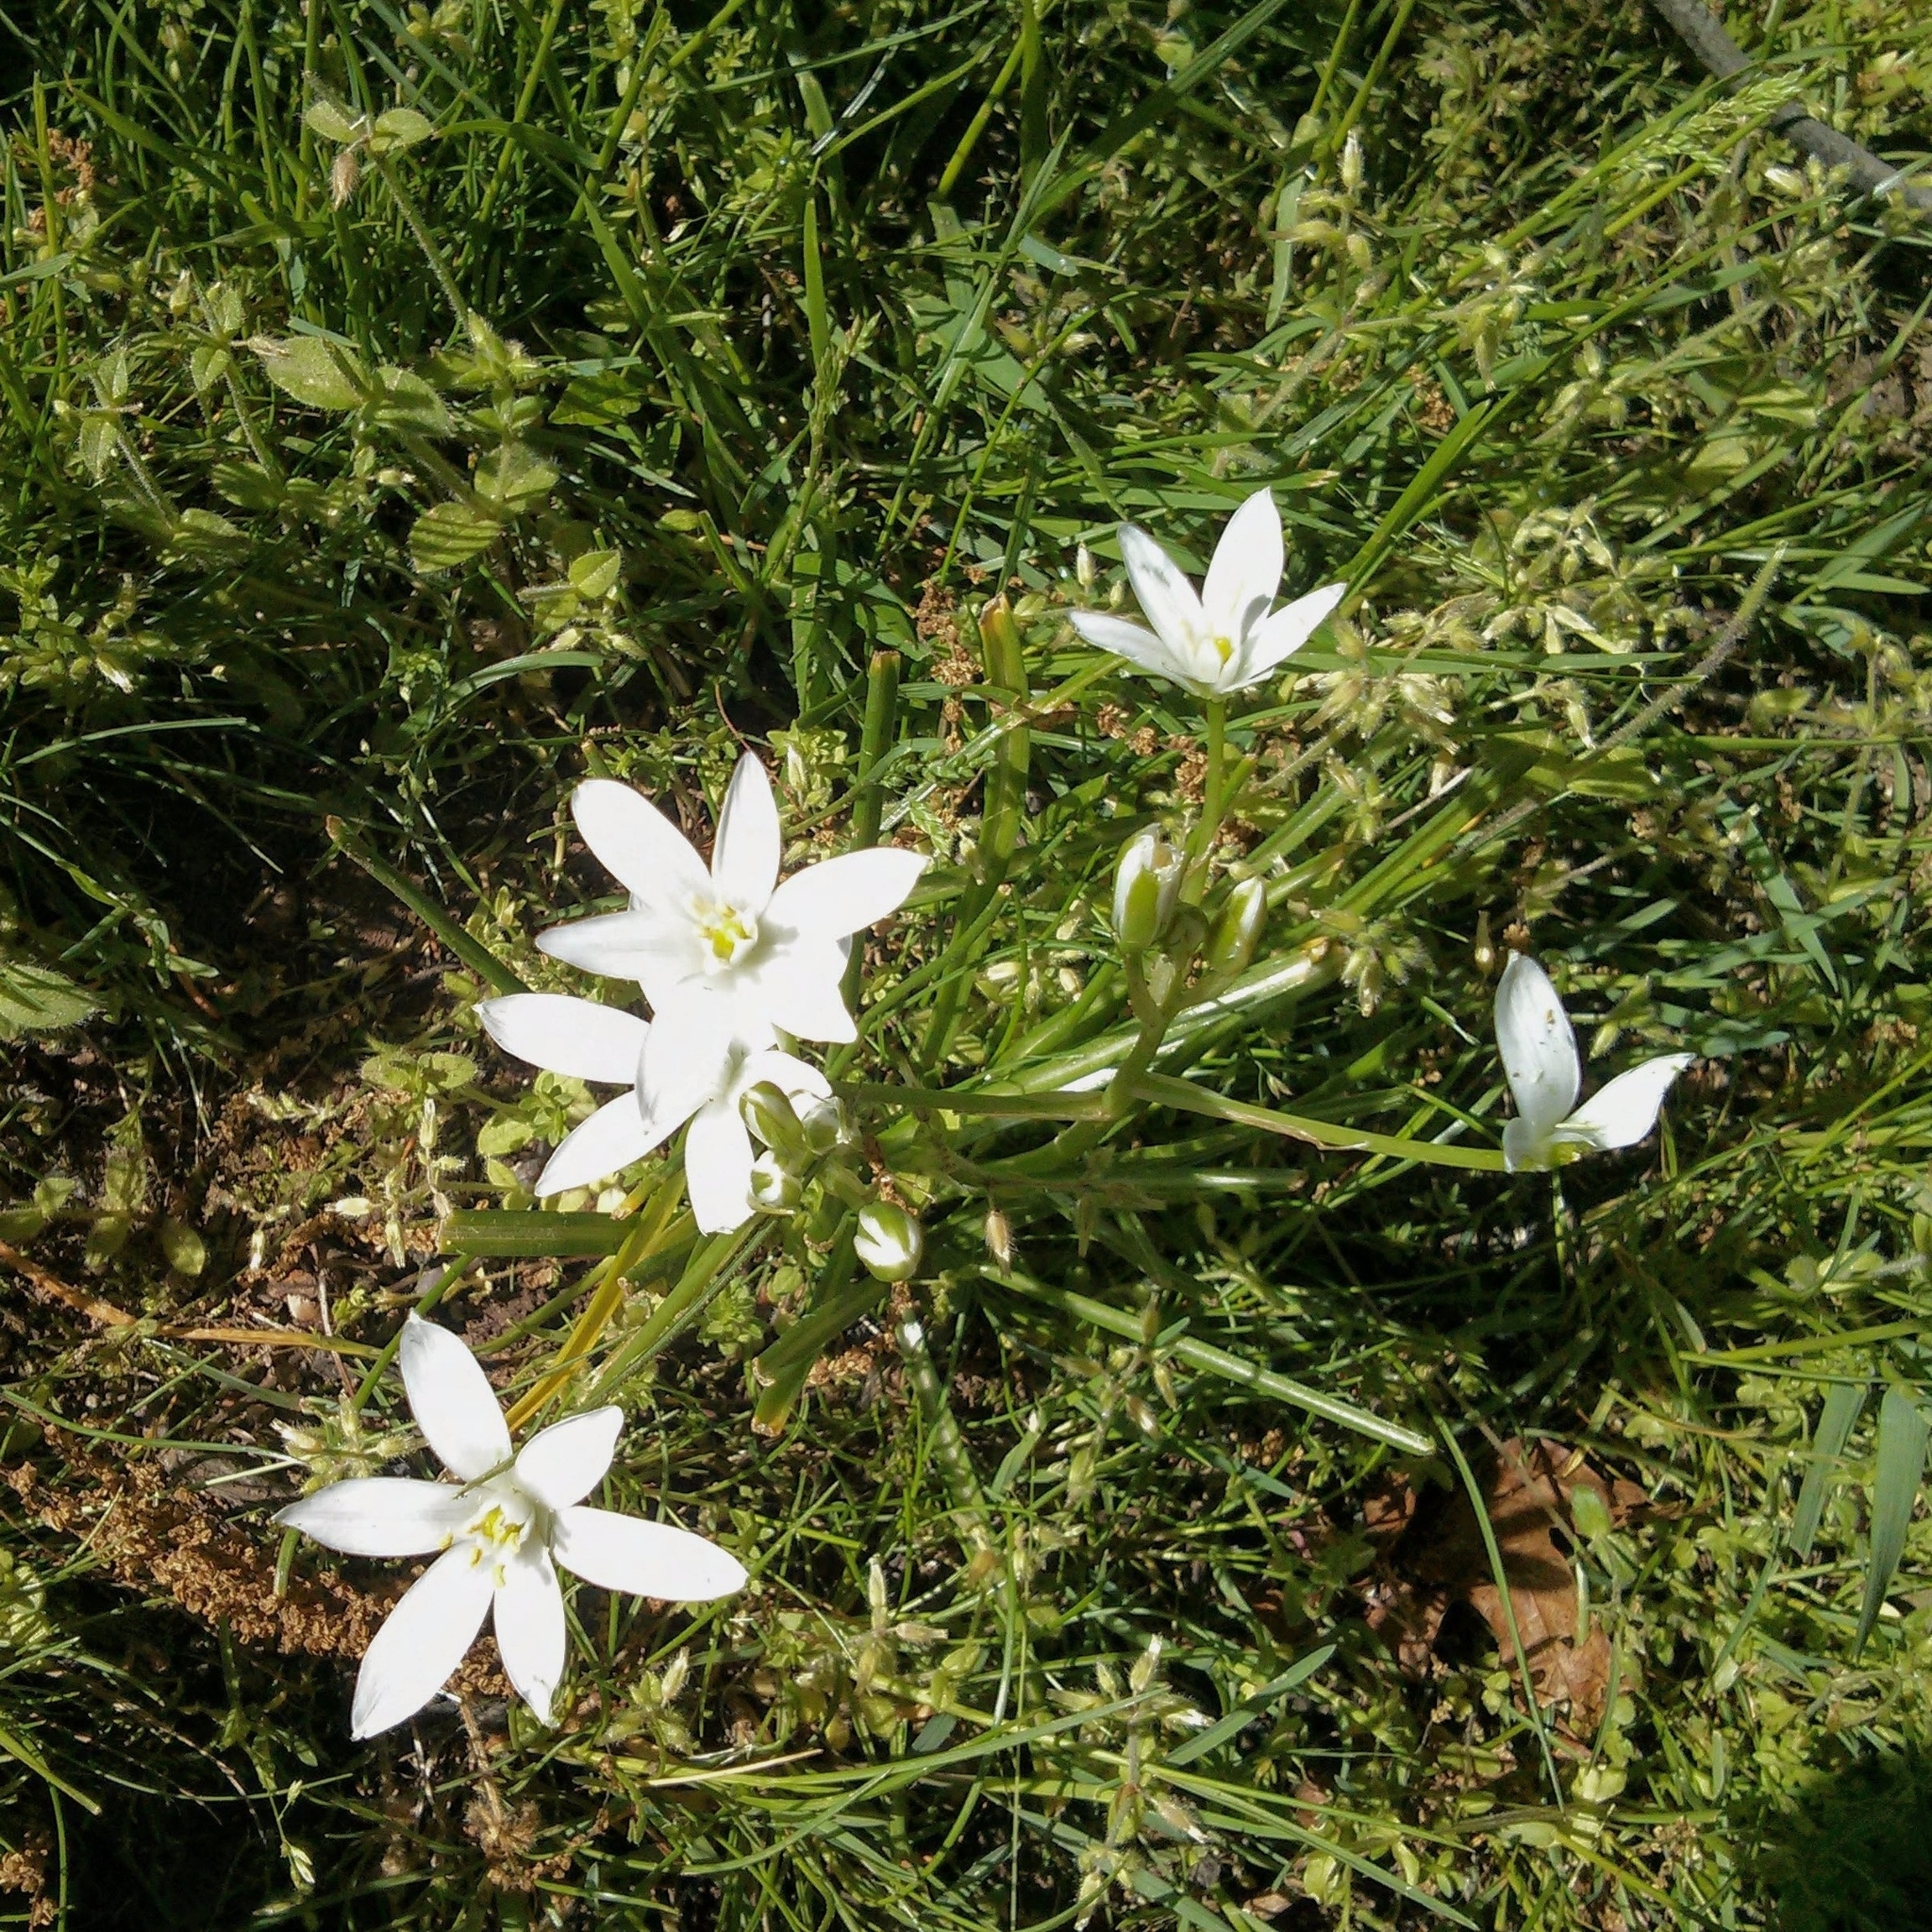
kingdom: Plantae
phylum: Tracheophyta
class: Liliopsida
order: Asparagales
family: Asparagaceae
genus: Ornithogalum
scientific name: Ornithogalum umbellatum
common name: Garden star-of-bethlehem
